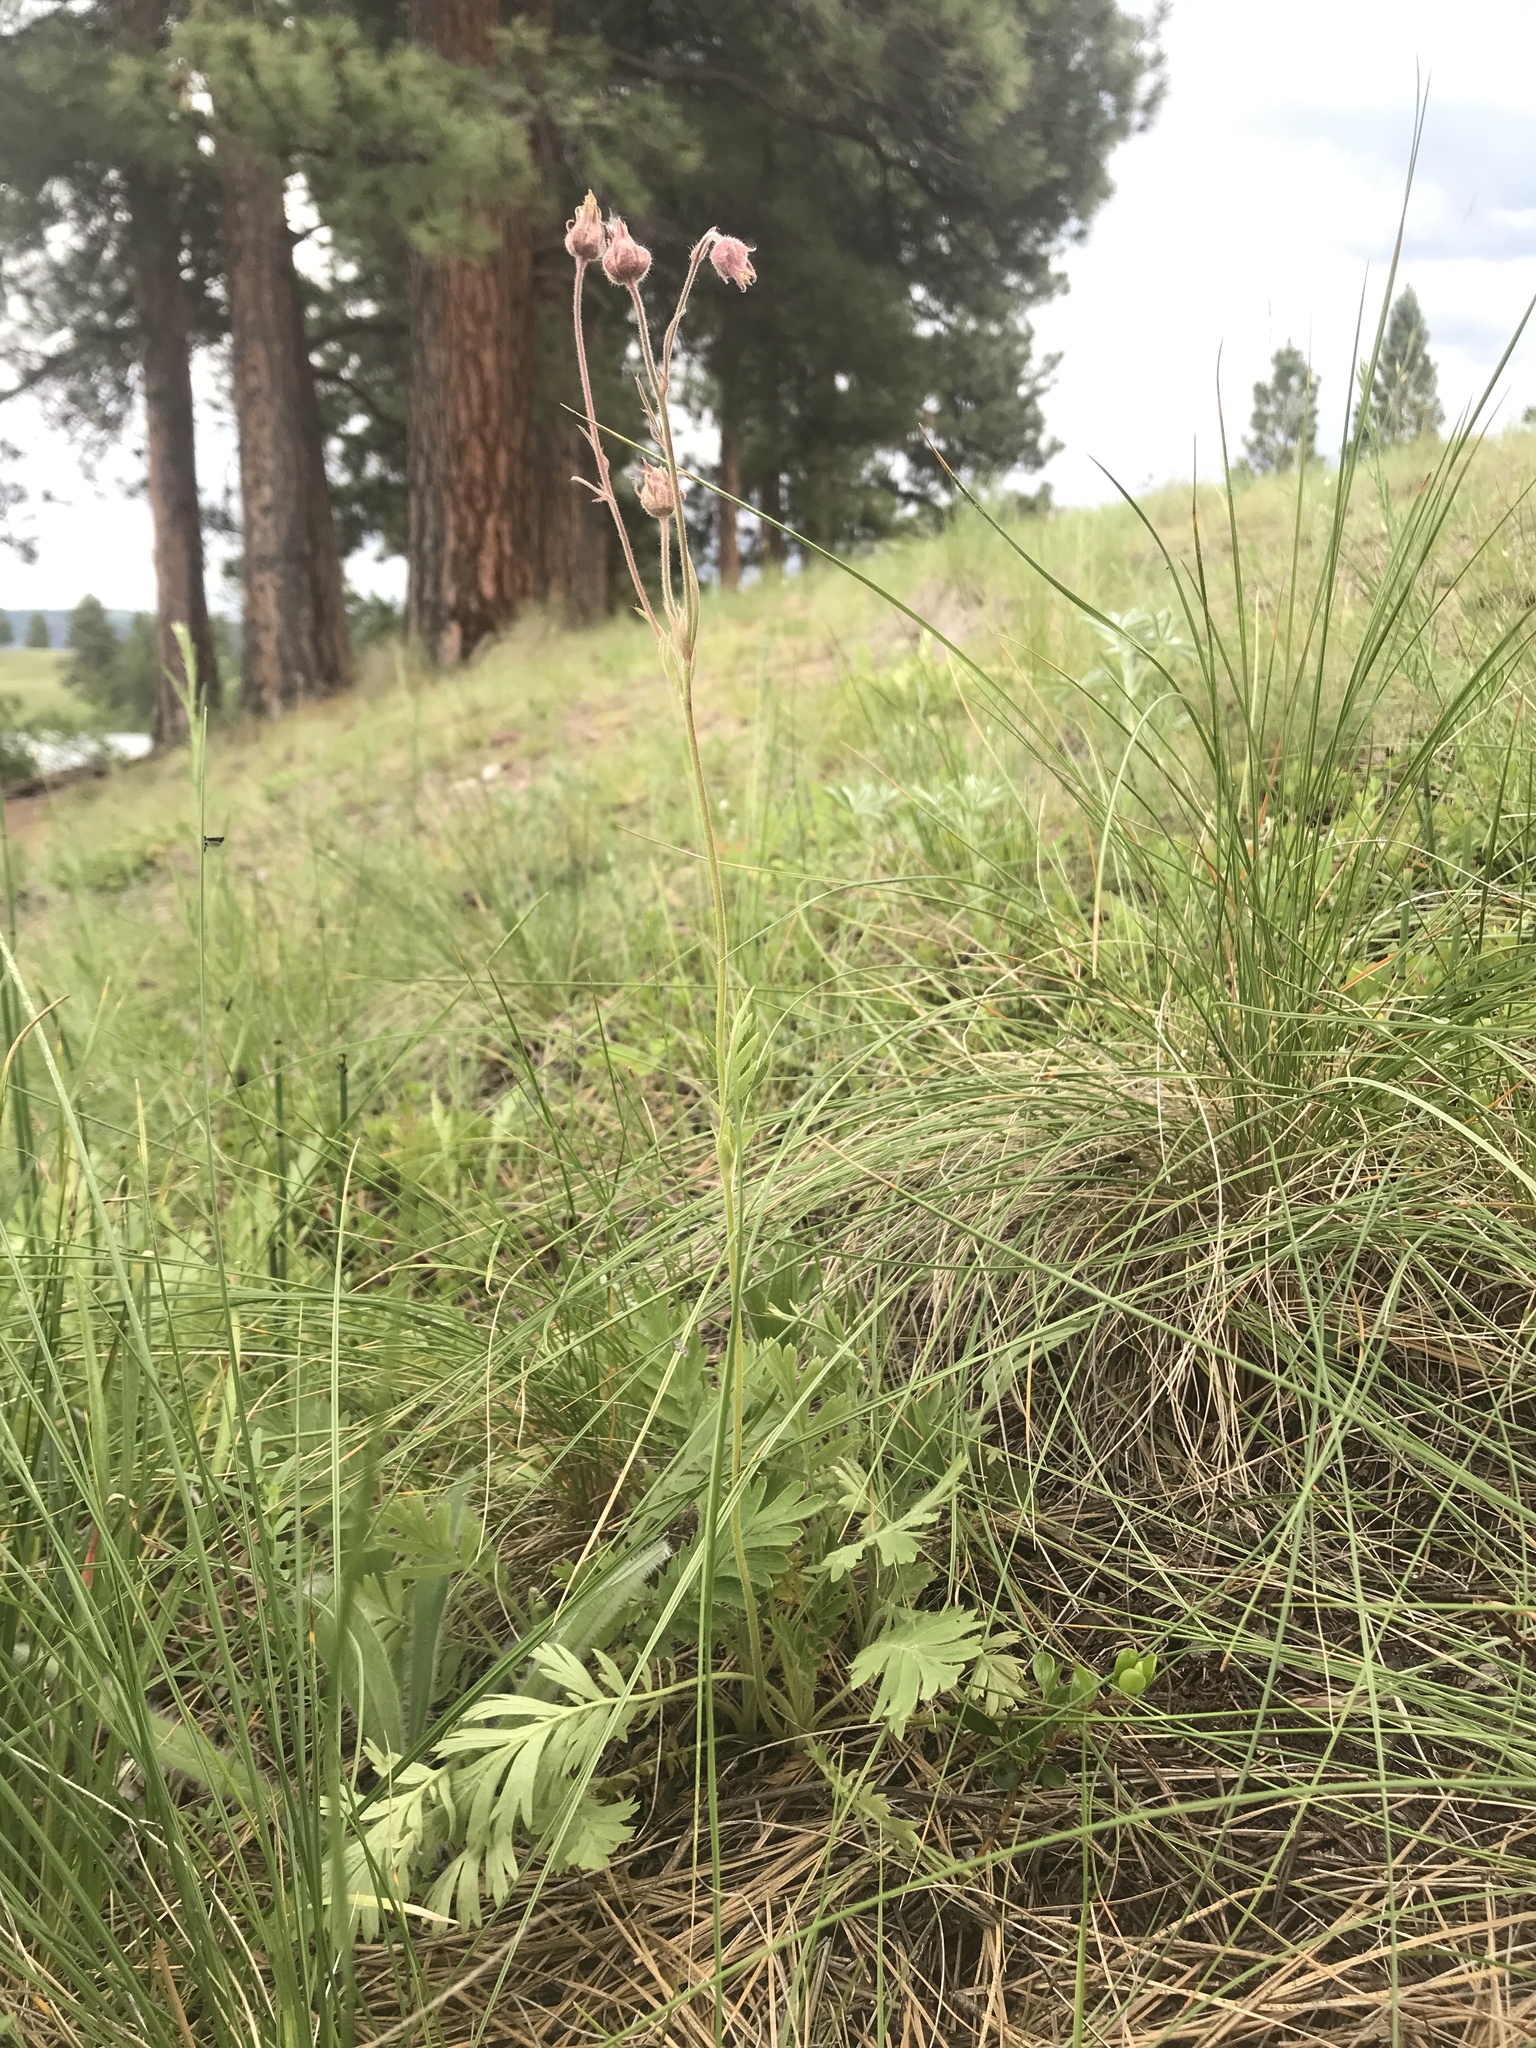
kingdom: Plantae
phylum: Tracheophyta
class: Magnoliopsida
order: Rosales
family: Rosaceae
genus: Geum
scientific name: Geum triflorum
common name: Old man's whiskers
